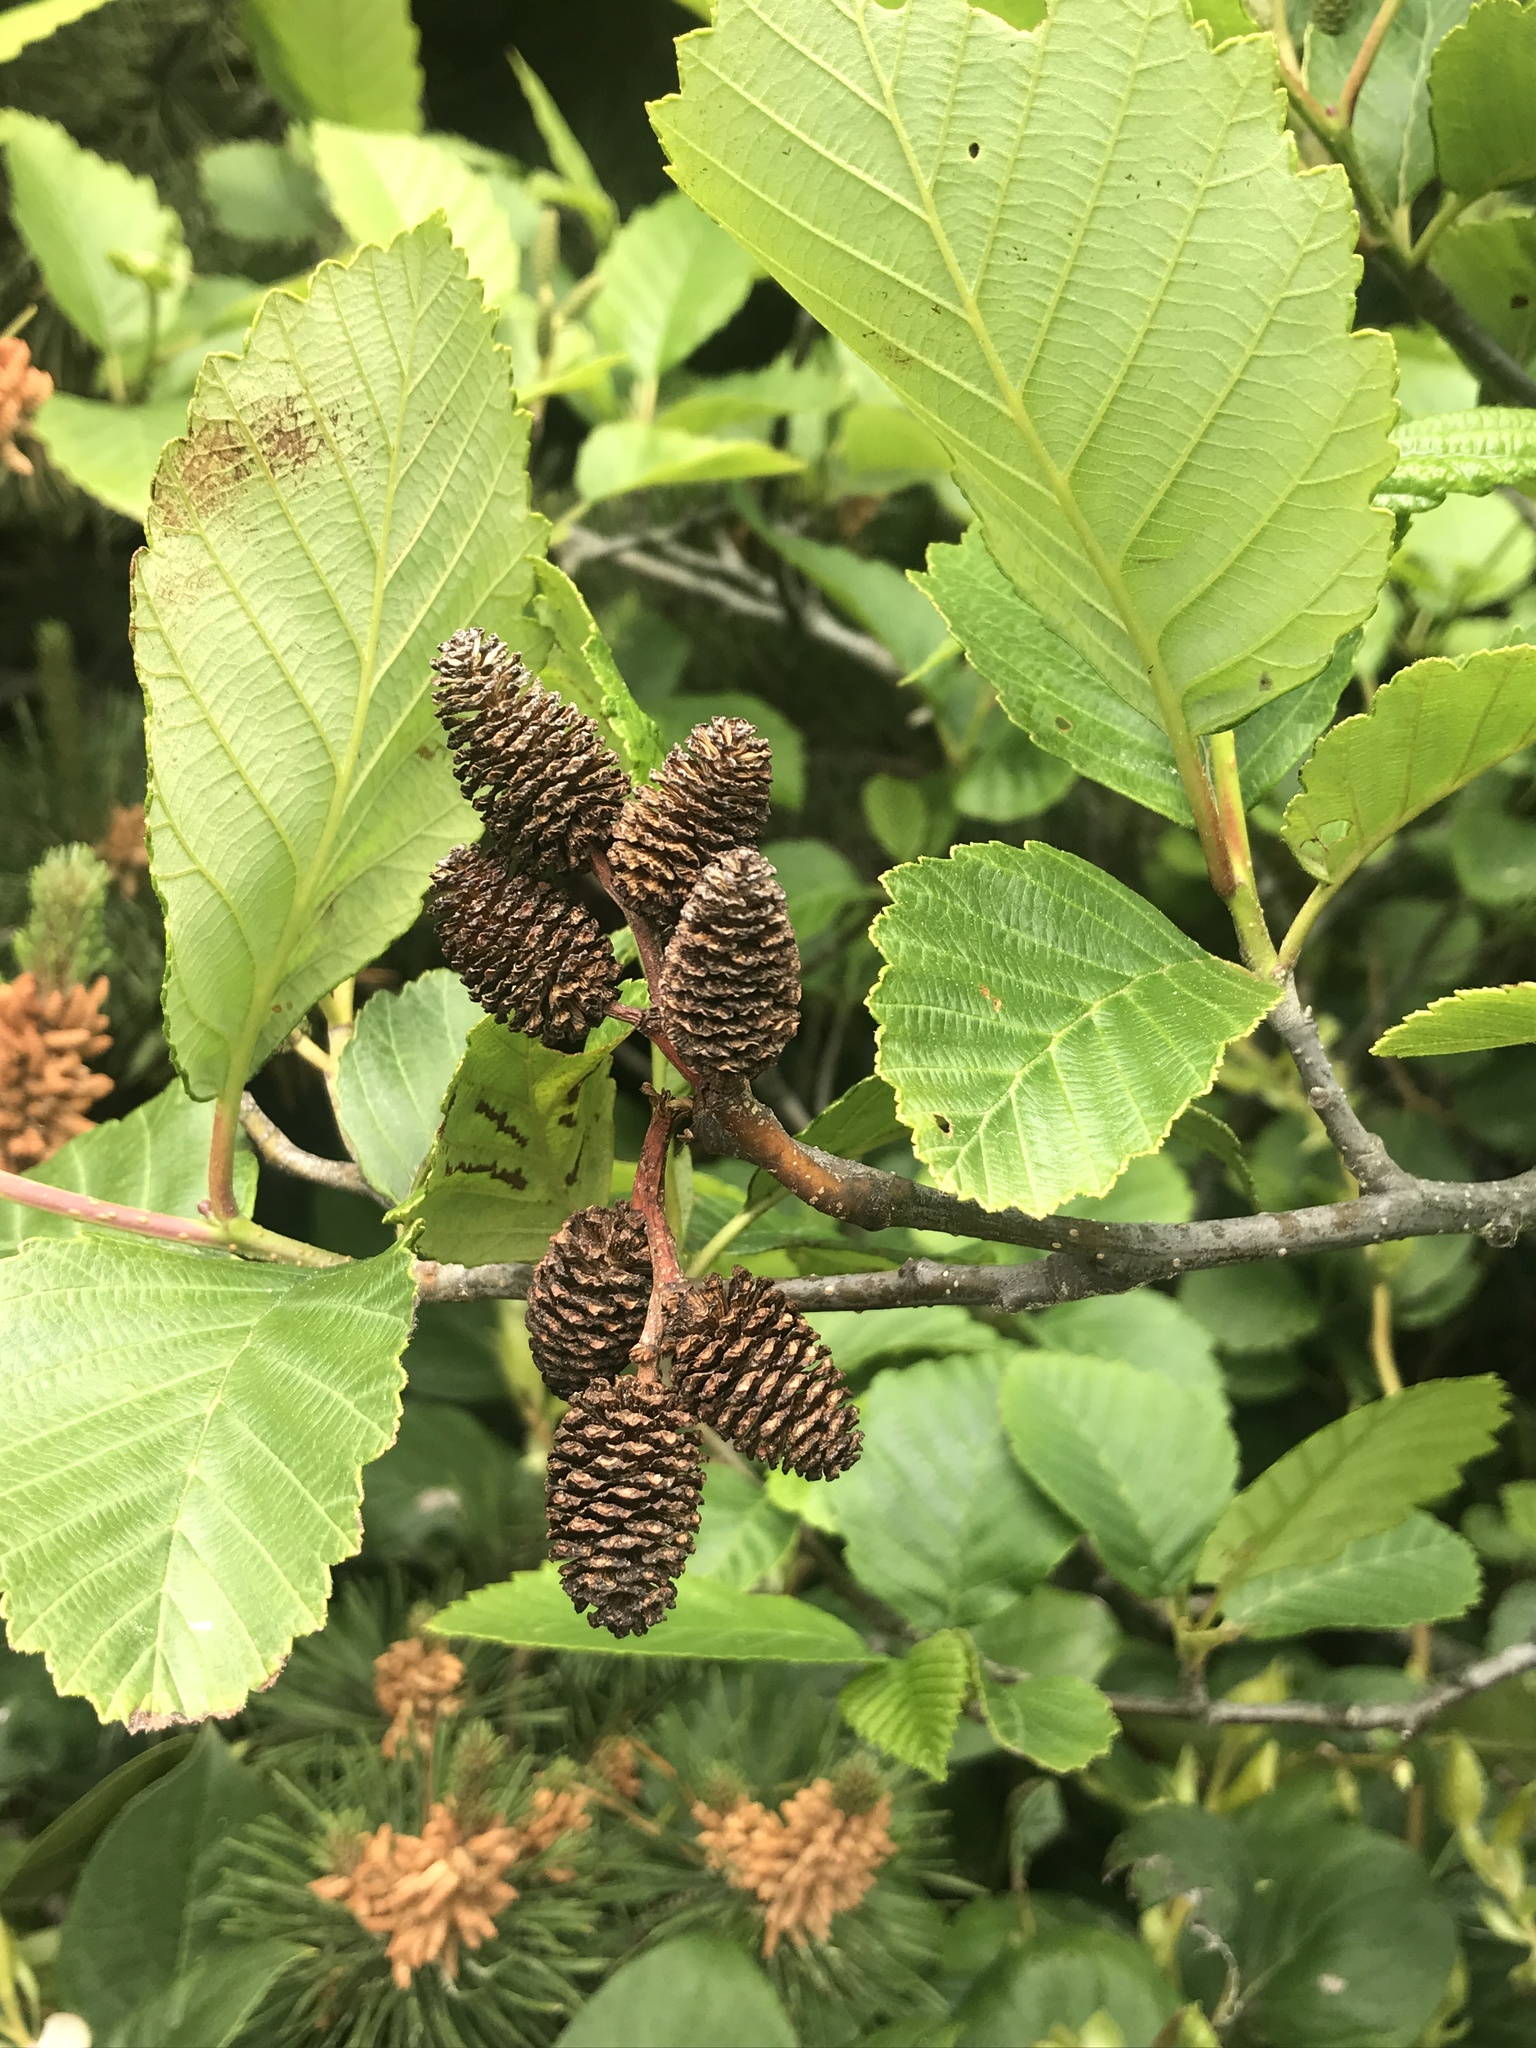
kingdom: Plantae
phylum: Tracheophyta
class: Magnoliopsida
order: Fagales
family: Betulaceae
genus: Alnus
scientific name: Alnus rubra
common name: Red alder
